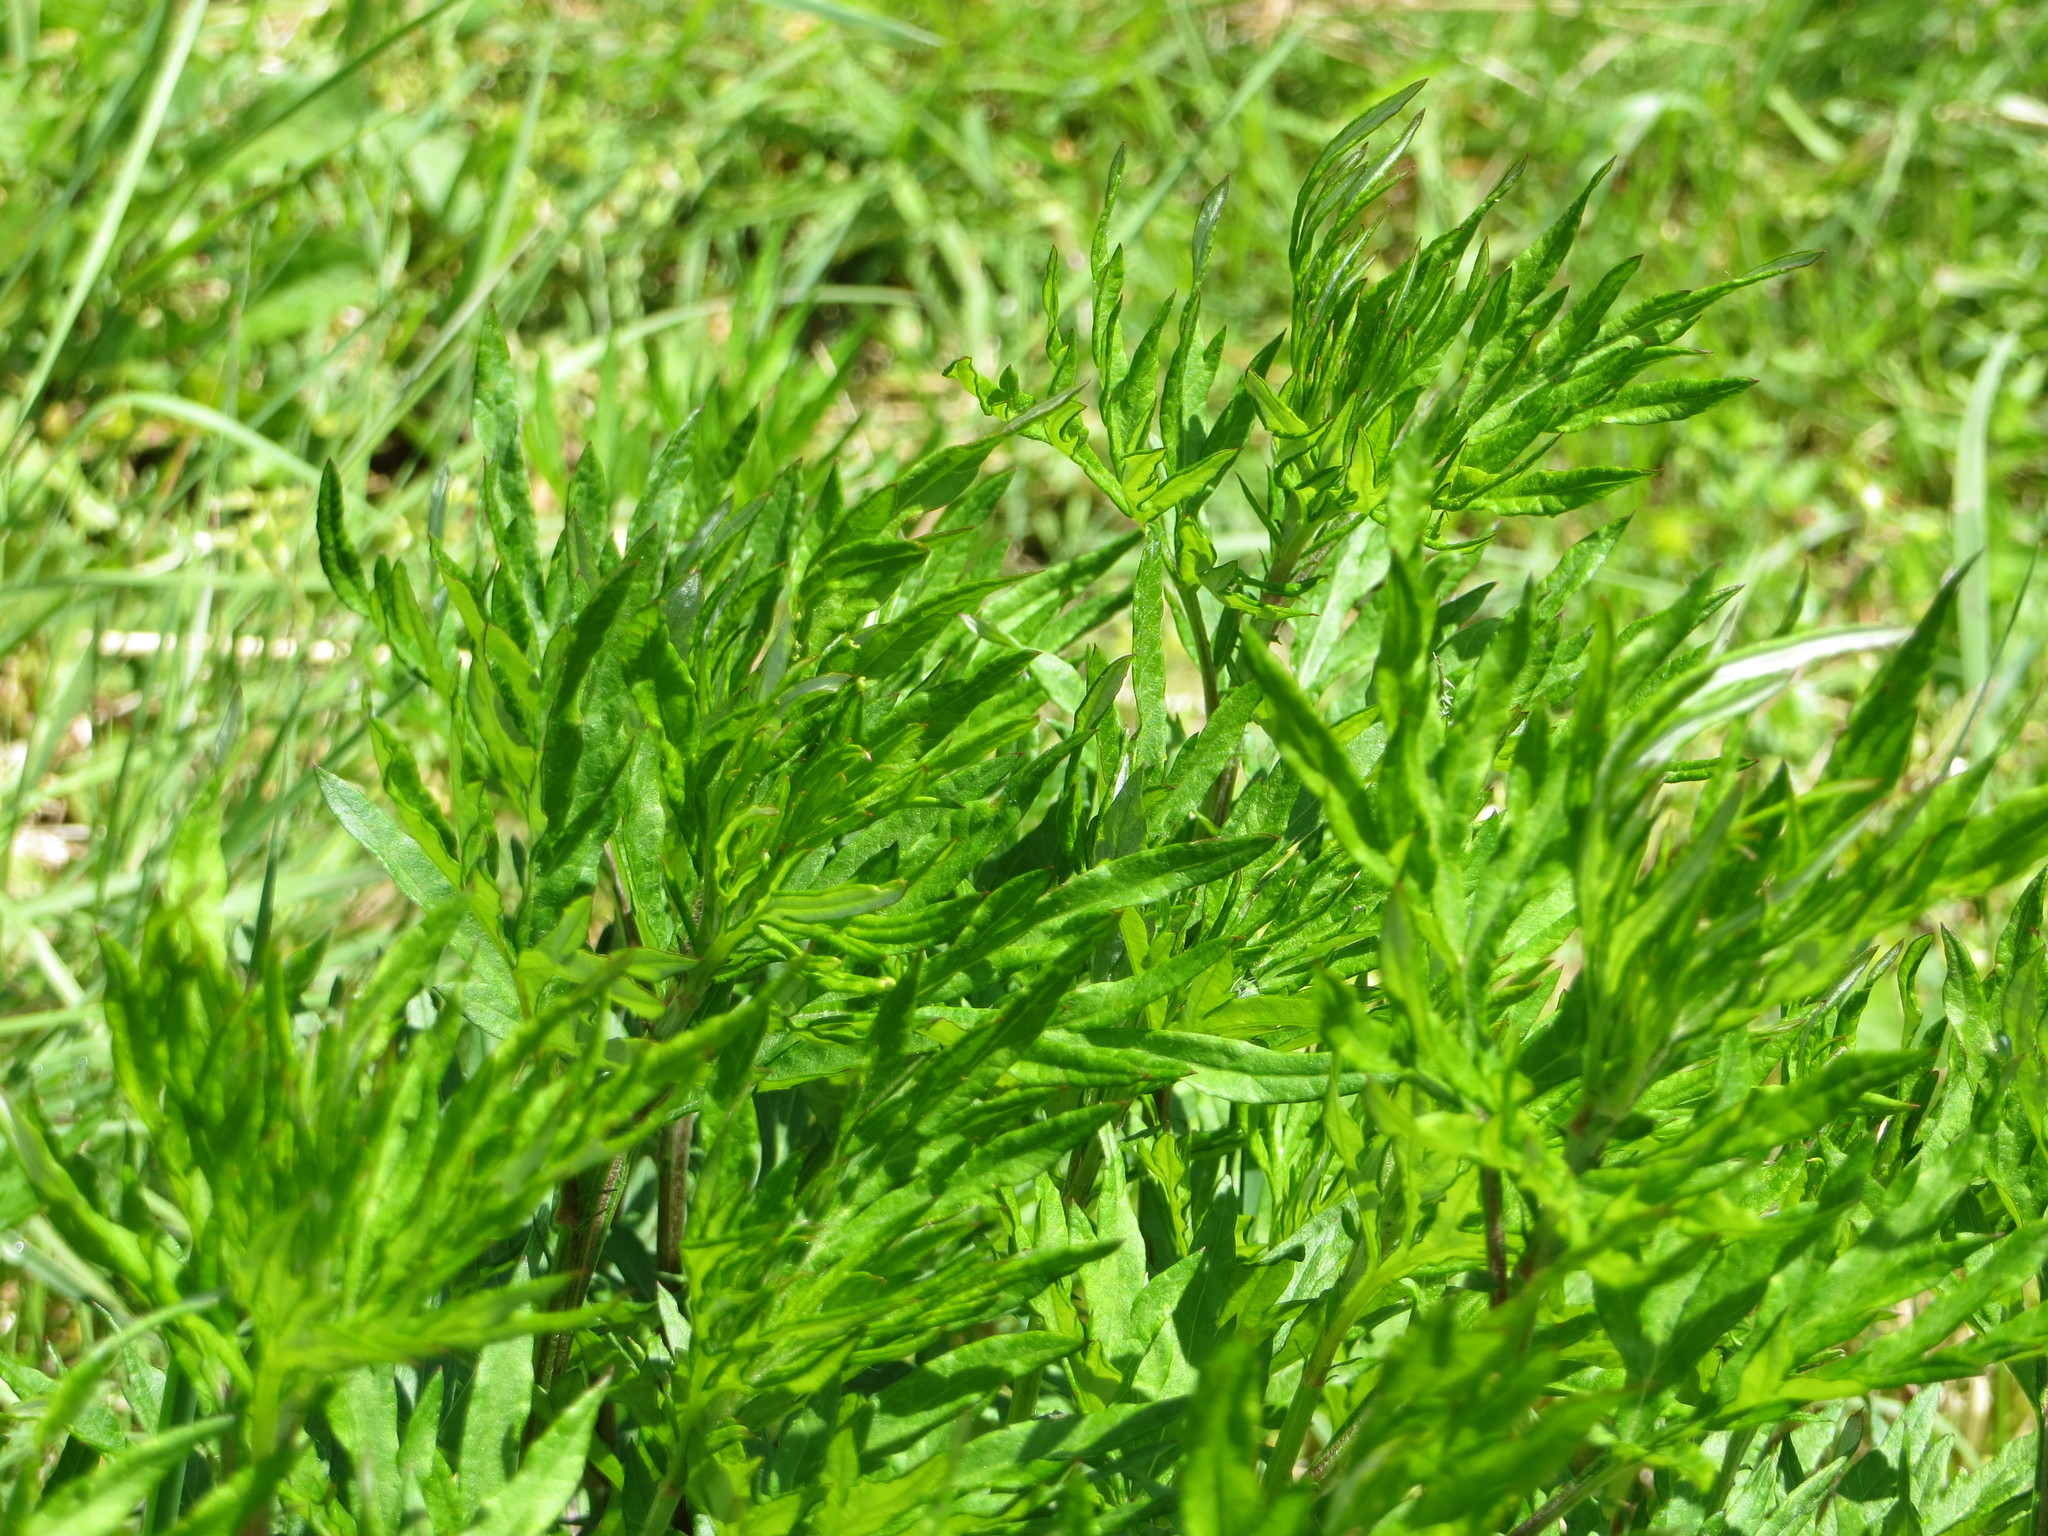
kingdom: Plantae
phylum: Tracheophyta
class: Magnoliopsida
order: Asterales
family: Asteraceae
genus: Artemisia
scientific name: Artemisia vulgaris
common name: Mugwort
